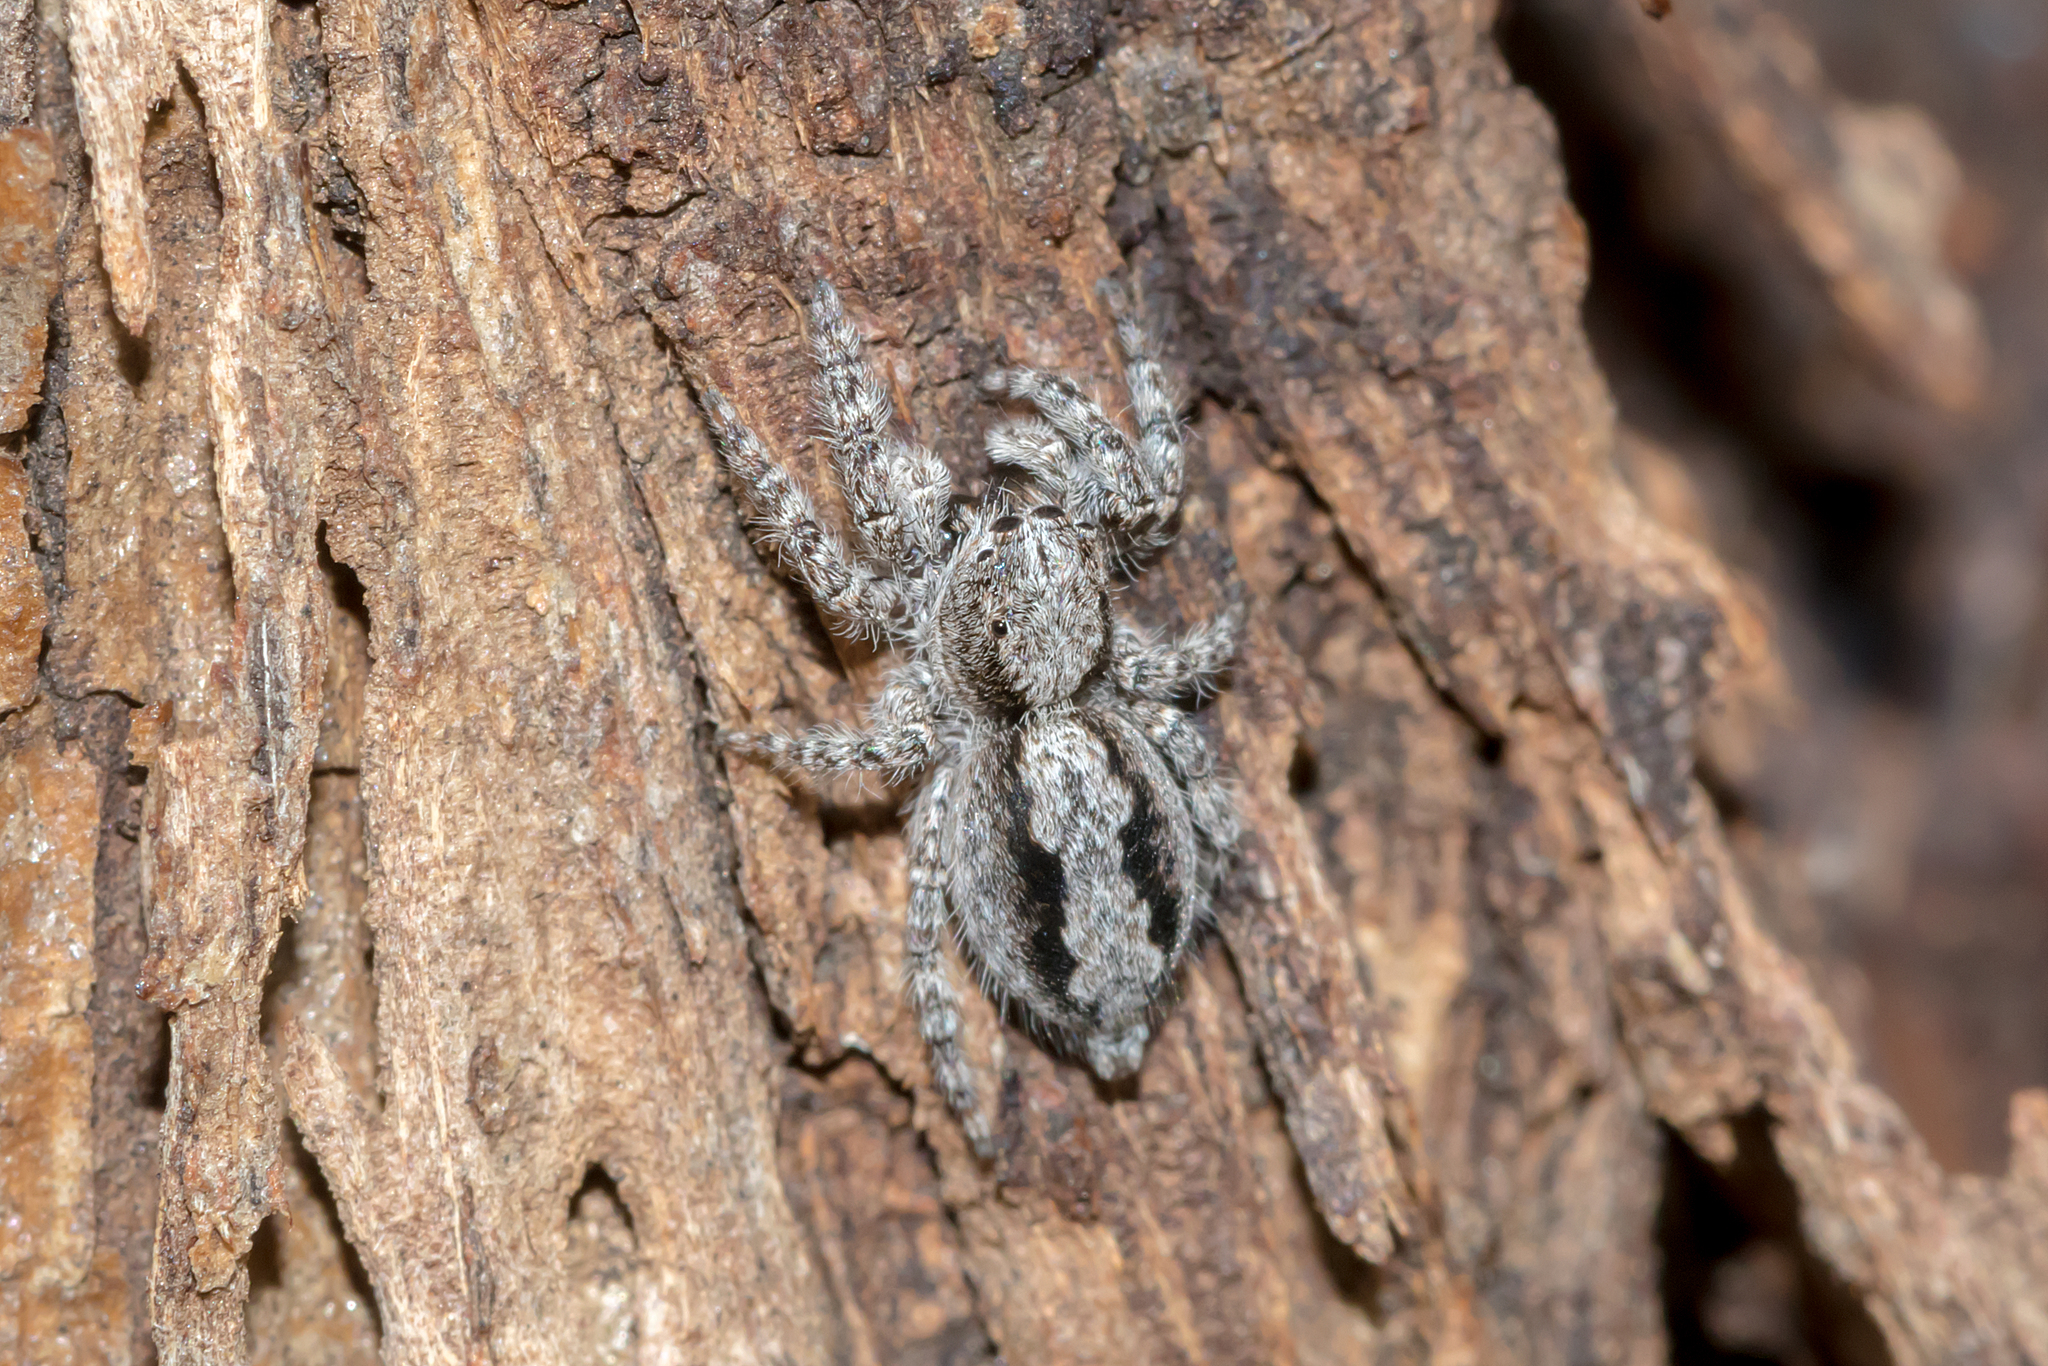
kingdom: Animalia
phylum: Arthropoda
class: Arachnida
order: Araneae
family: Salticidae
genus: Clynotis
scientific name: Clynotis severus
